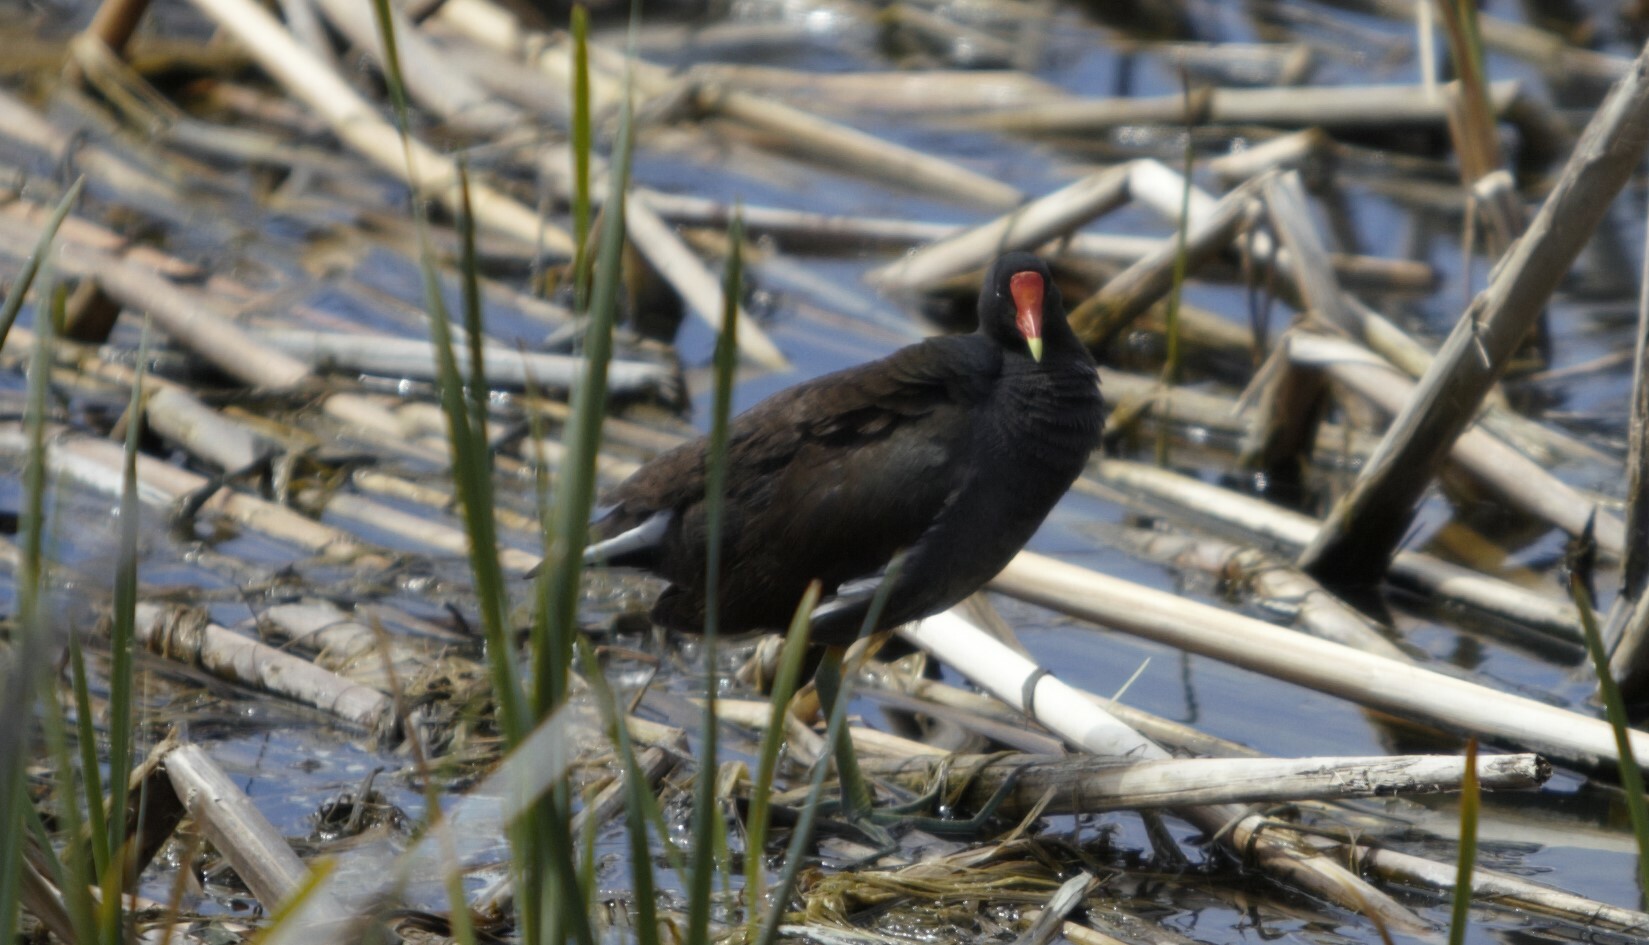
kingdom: Animalia
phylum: Chordata
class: Aves
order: Gruiformes
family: Rallidae
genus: Gallinula
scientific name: Gallinula chloropus
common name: Common moorhen
